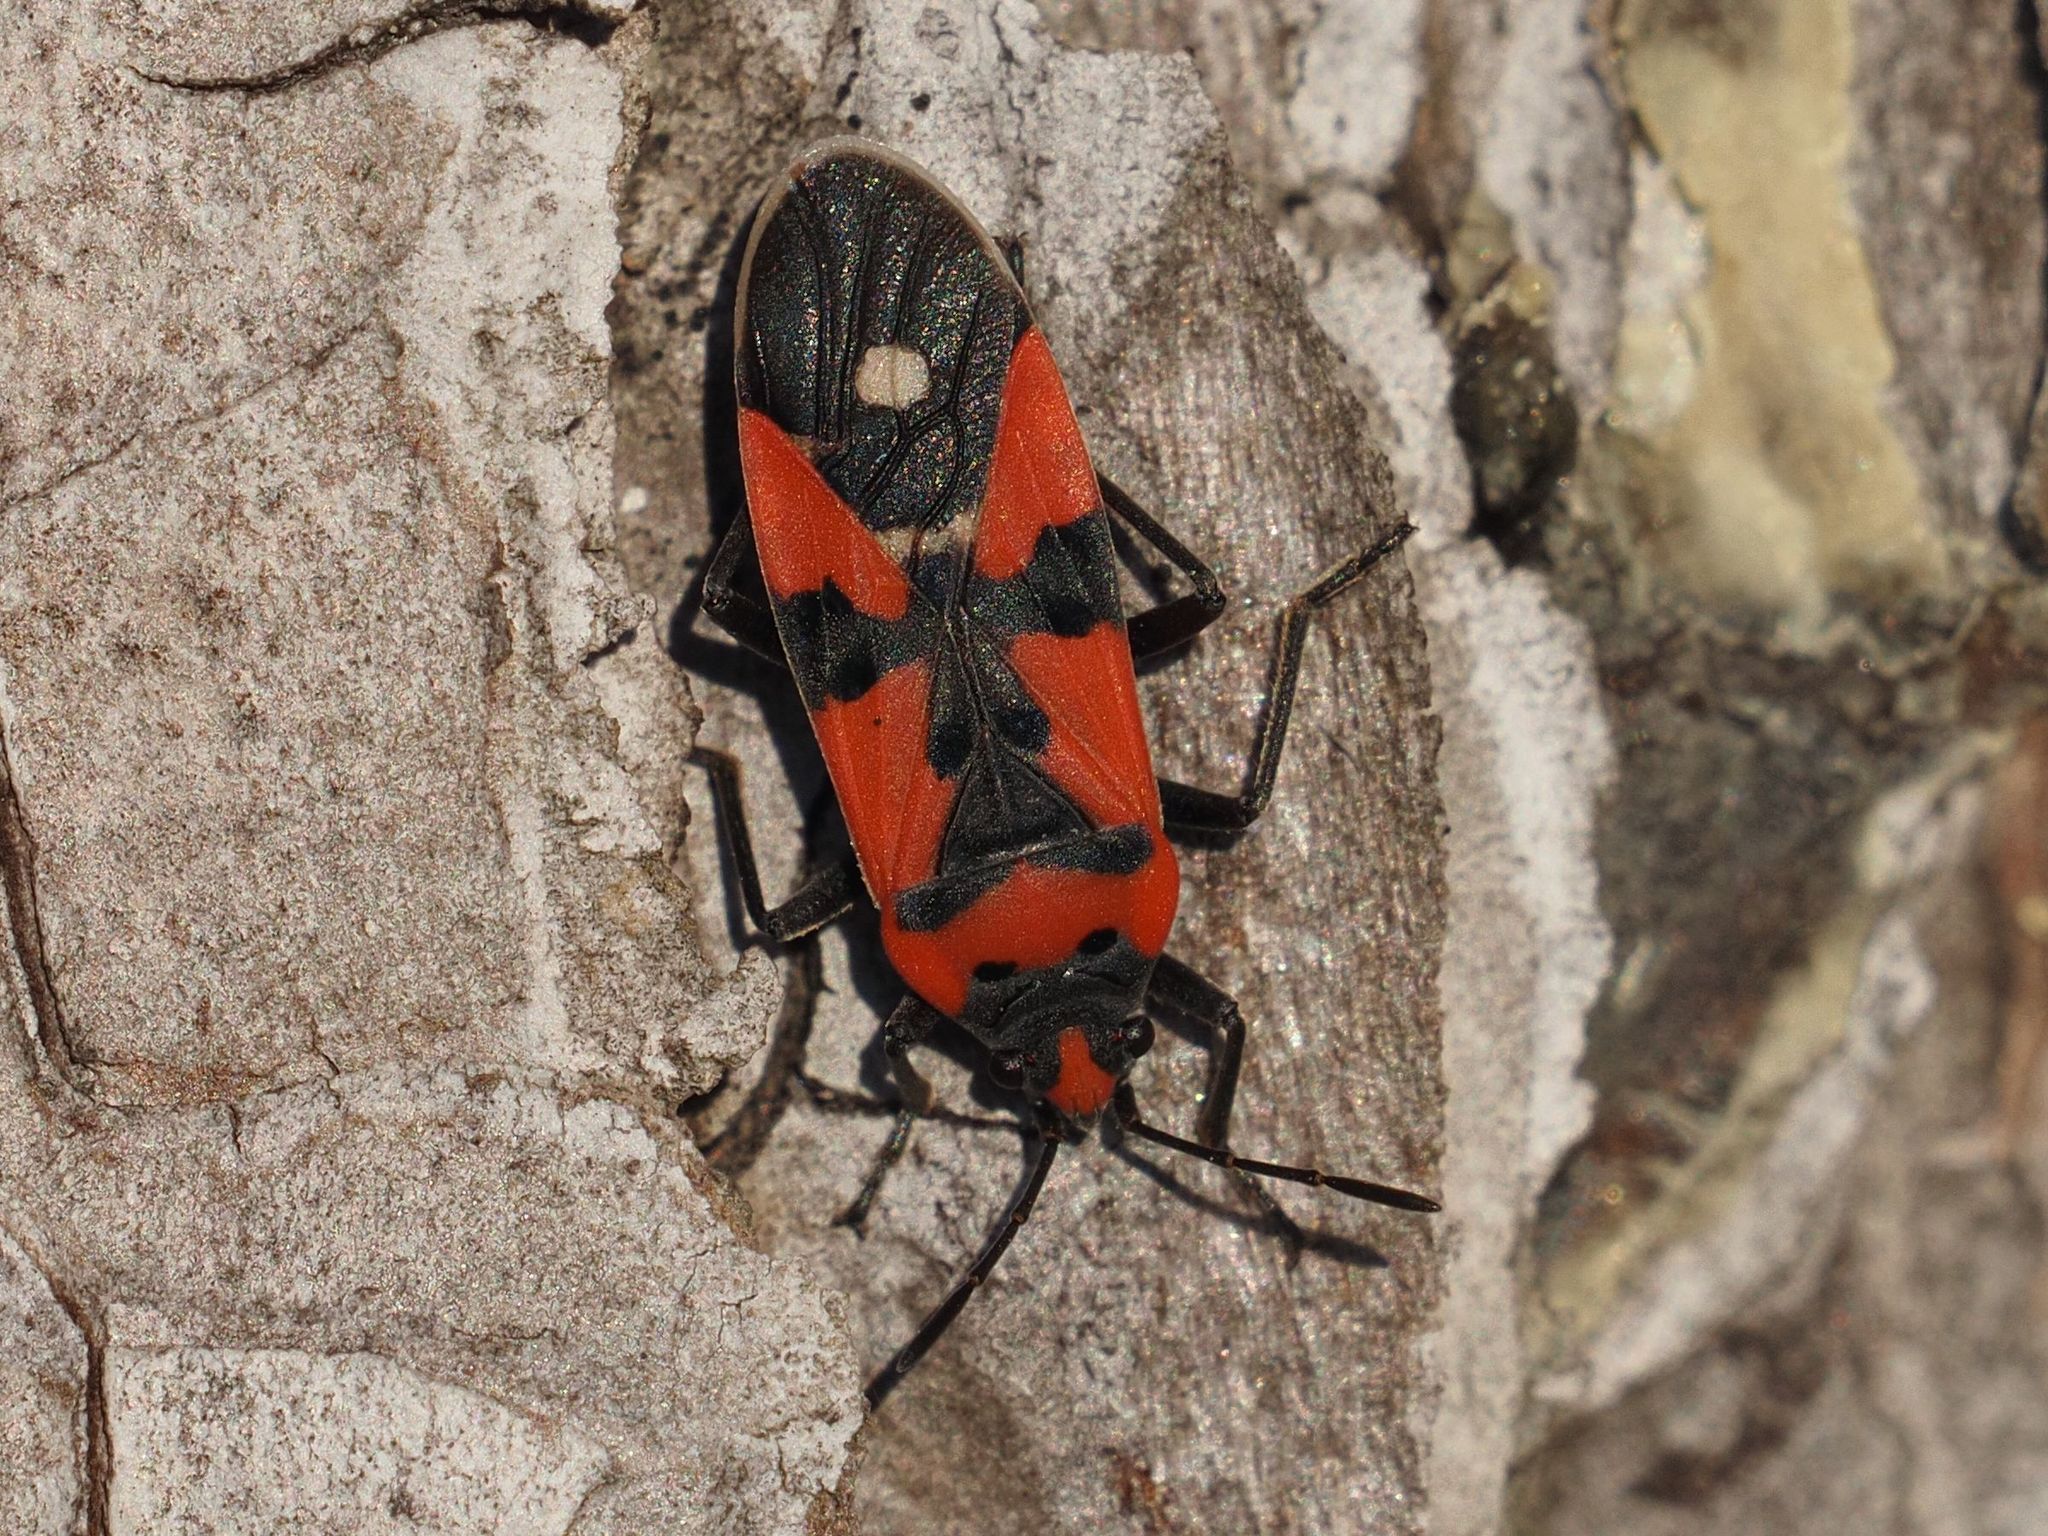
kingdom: Animalia
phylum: Arthropoda
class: Insecta
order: Hemiptera
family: Lygaeidae
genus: Lygaeus
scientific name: Lygaeus equestris
